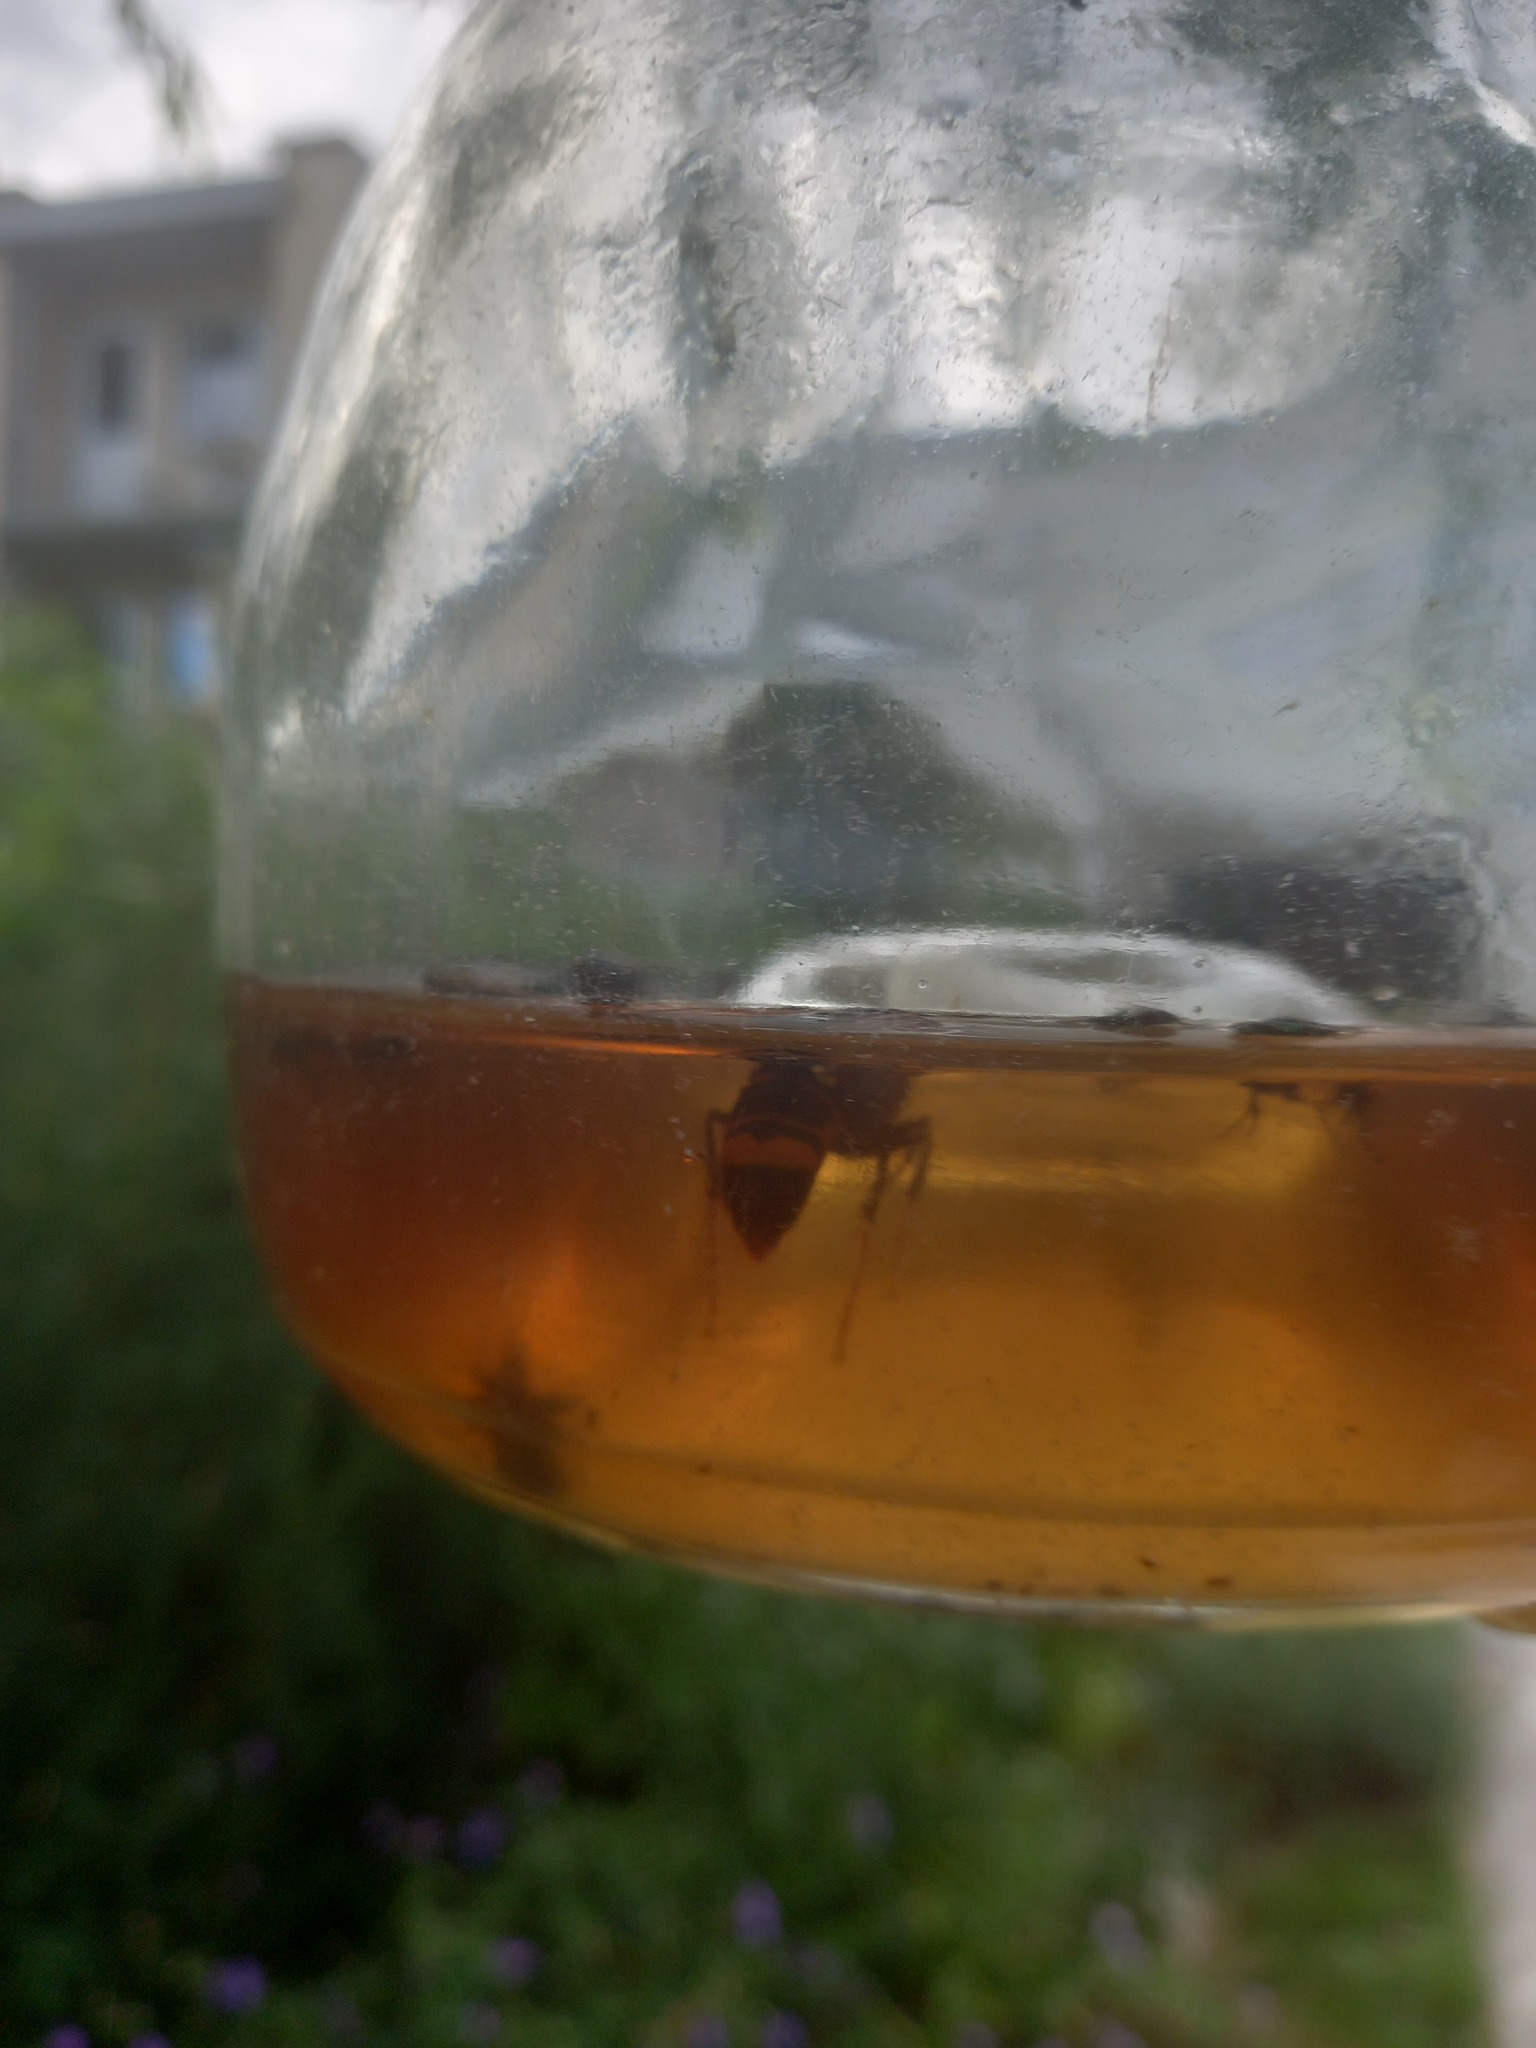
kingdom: Animalia
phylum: Arthropoda
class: Insecta
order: Hymenoptera
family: Vespidae
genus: Vespa
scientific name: Vespa velutina
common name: Asian hornet
